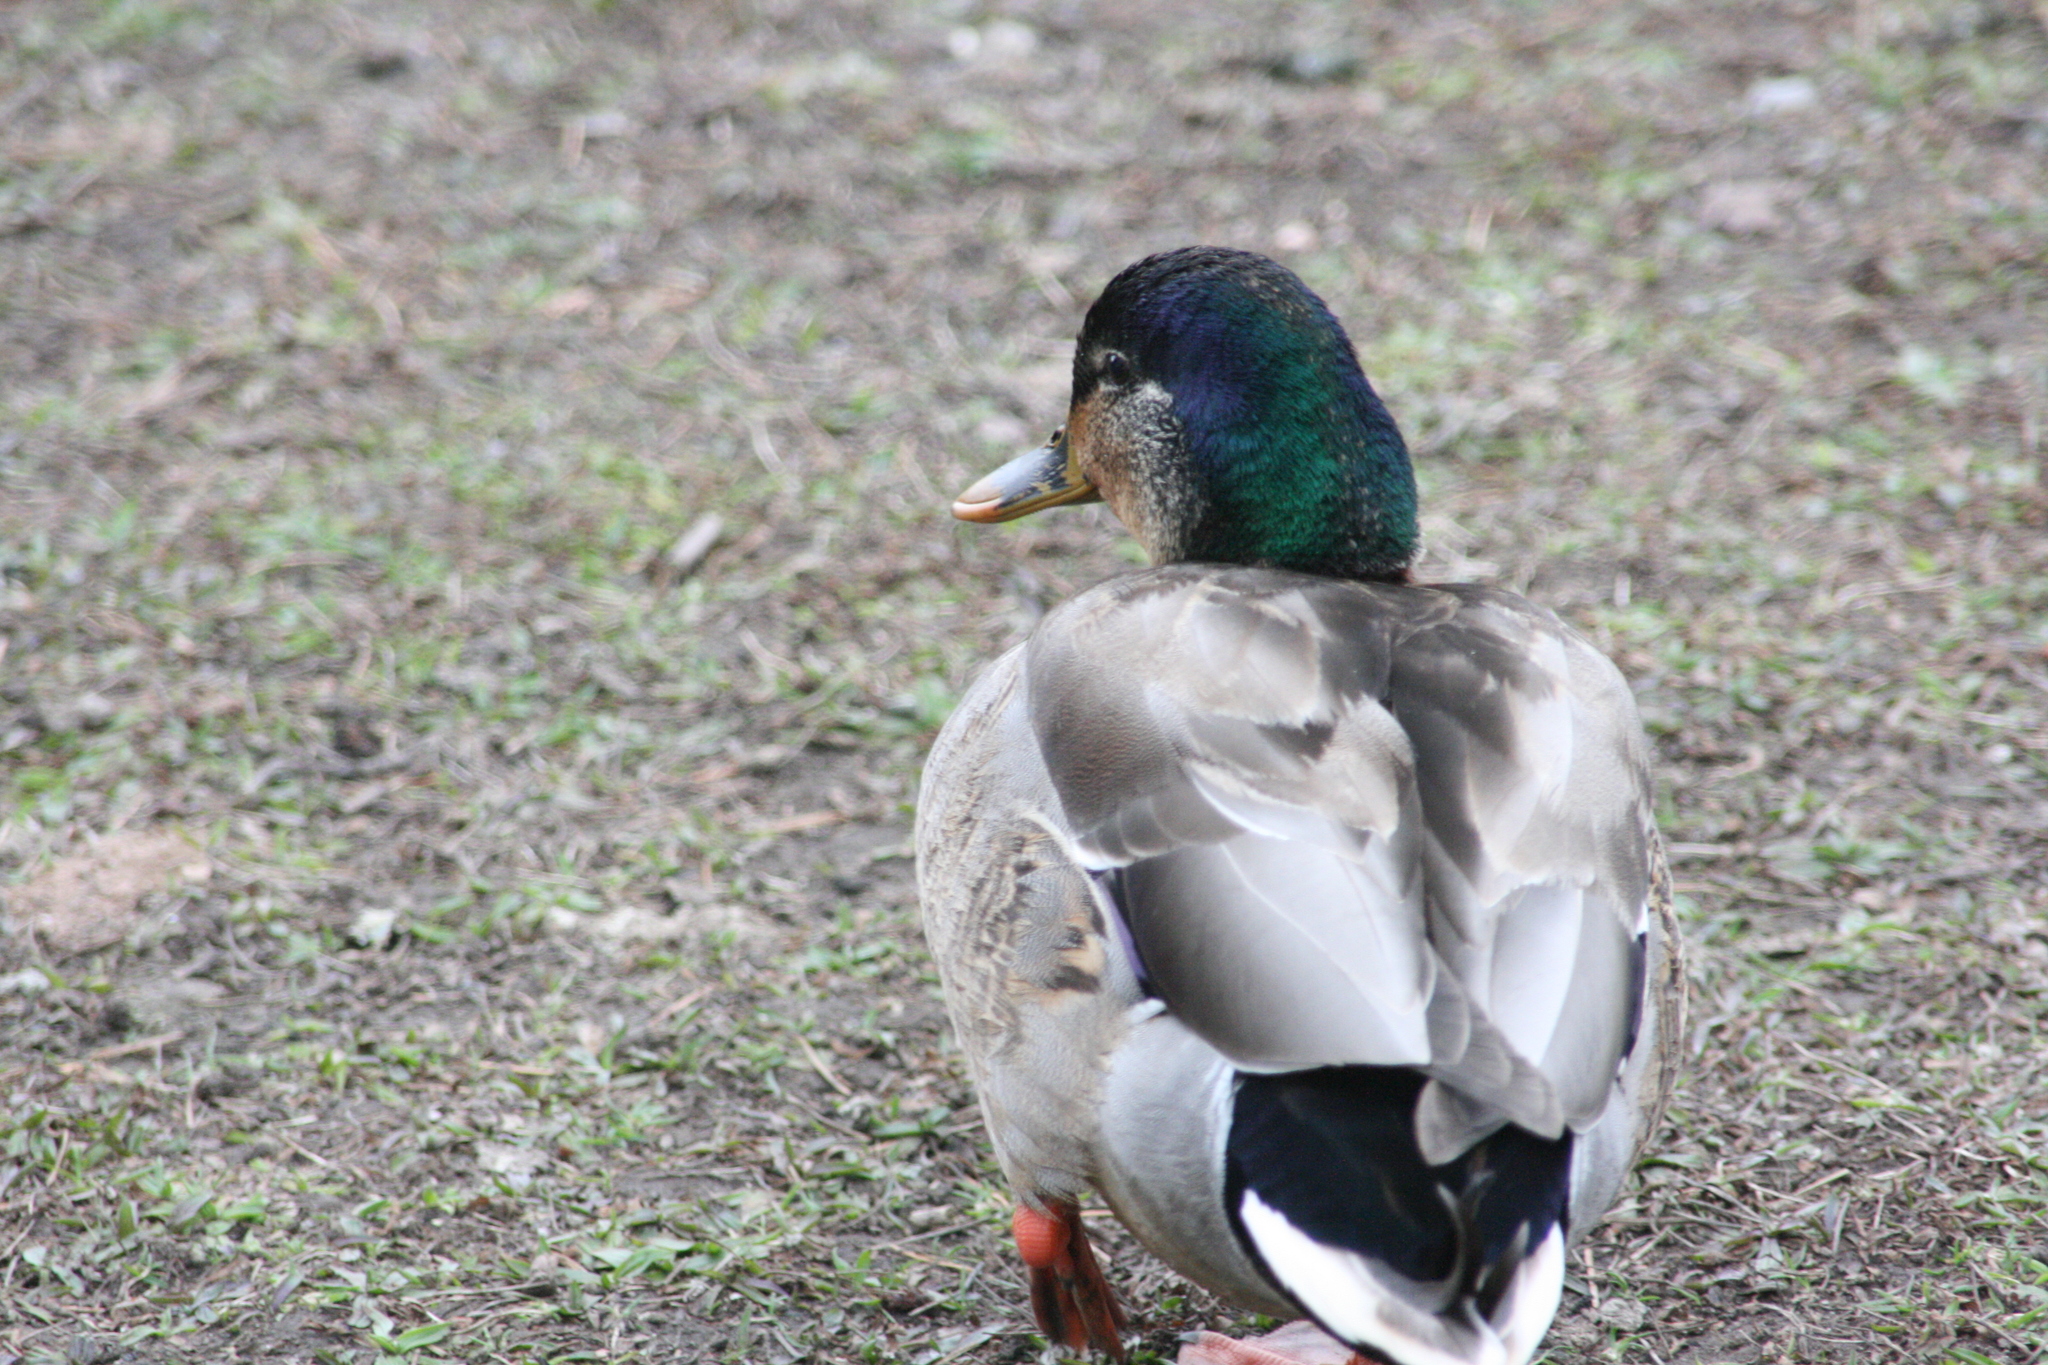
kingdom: Animalia
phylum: Chordata
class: Aves
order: Anseriformes
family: Anatidae
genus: Anas
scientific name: Anas platyrhynchos
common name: Mallard
